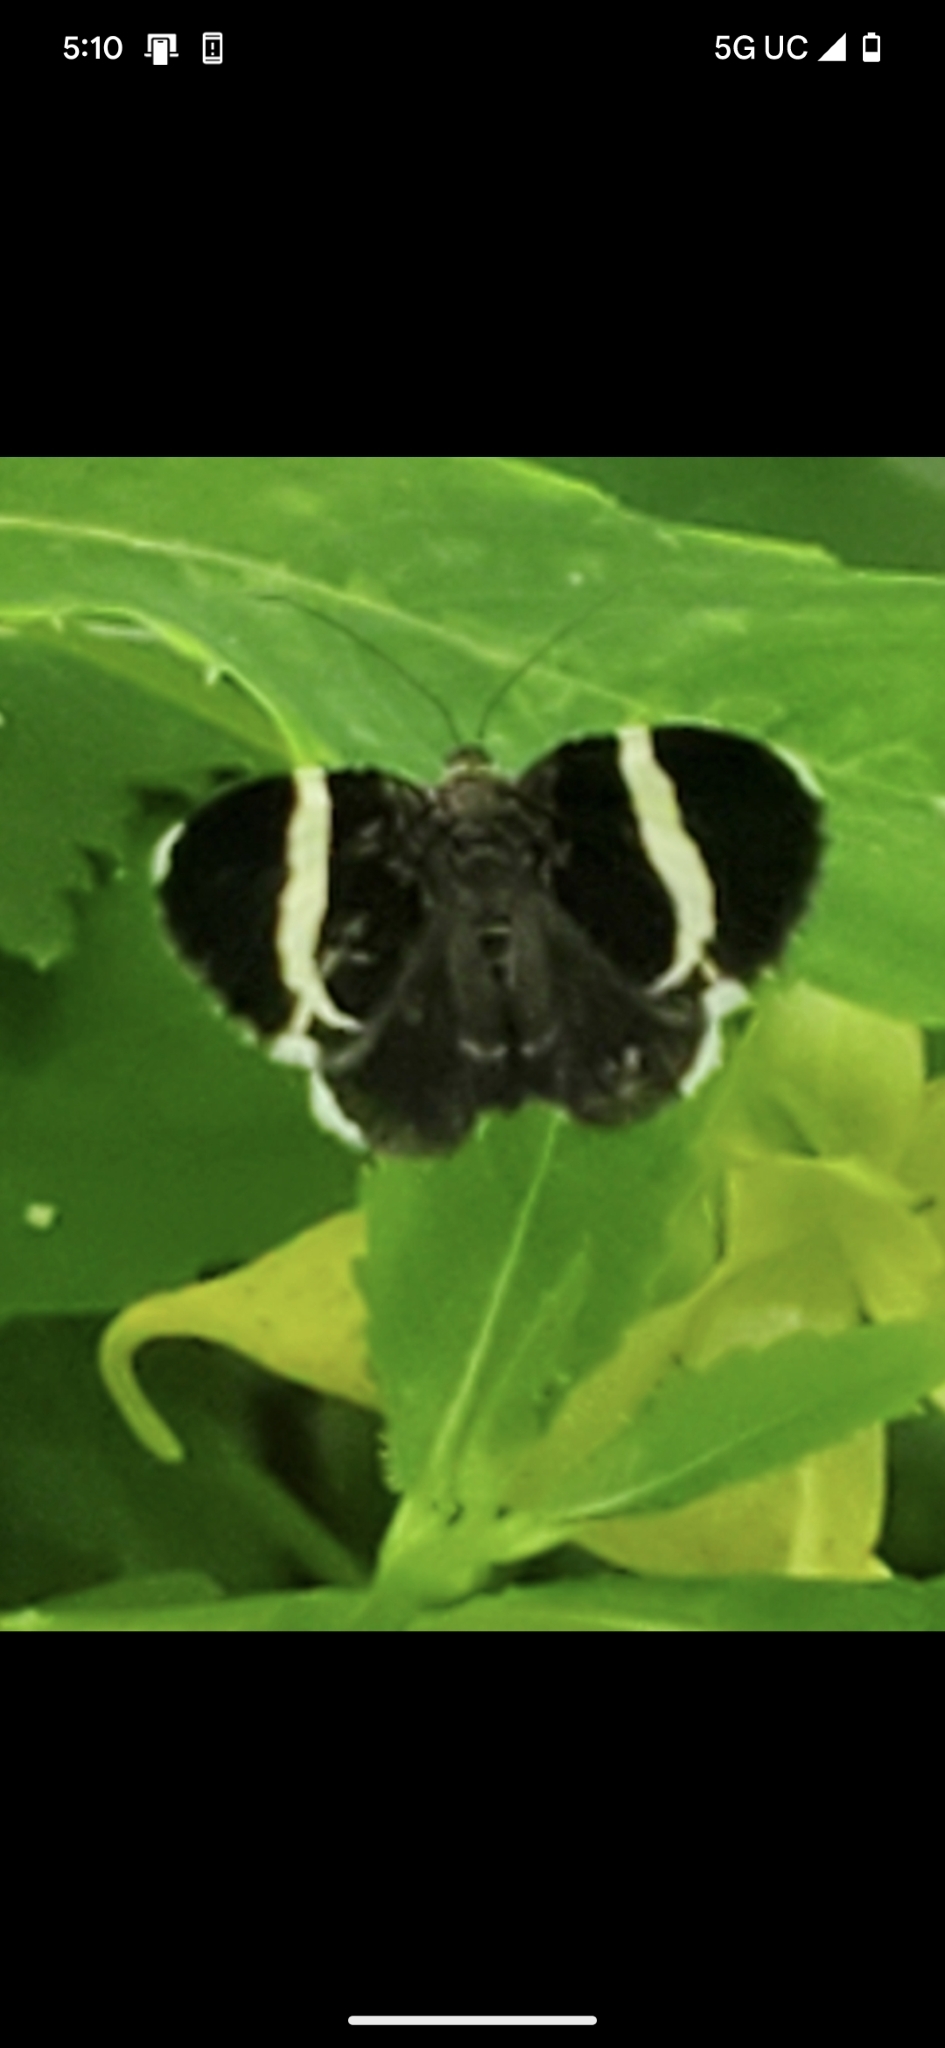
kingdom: Animalia
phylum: Arthropoda
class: Insecta
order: Lepidoptera
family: Geometridae
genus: Trichodezia
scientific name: Trichodezia albovittata
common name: White striped black
